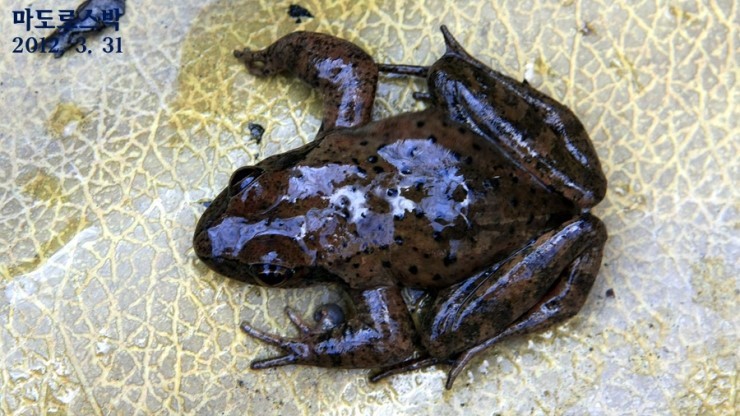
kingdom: Animalia
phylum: Chordata
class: Amphibia
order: Anura
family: Ranidae
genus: Rana
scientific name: Rana huanrenensis
